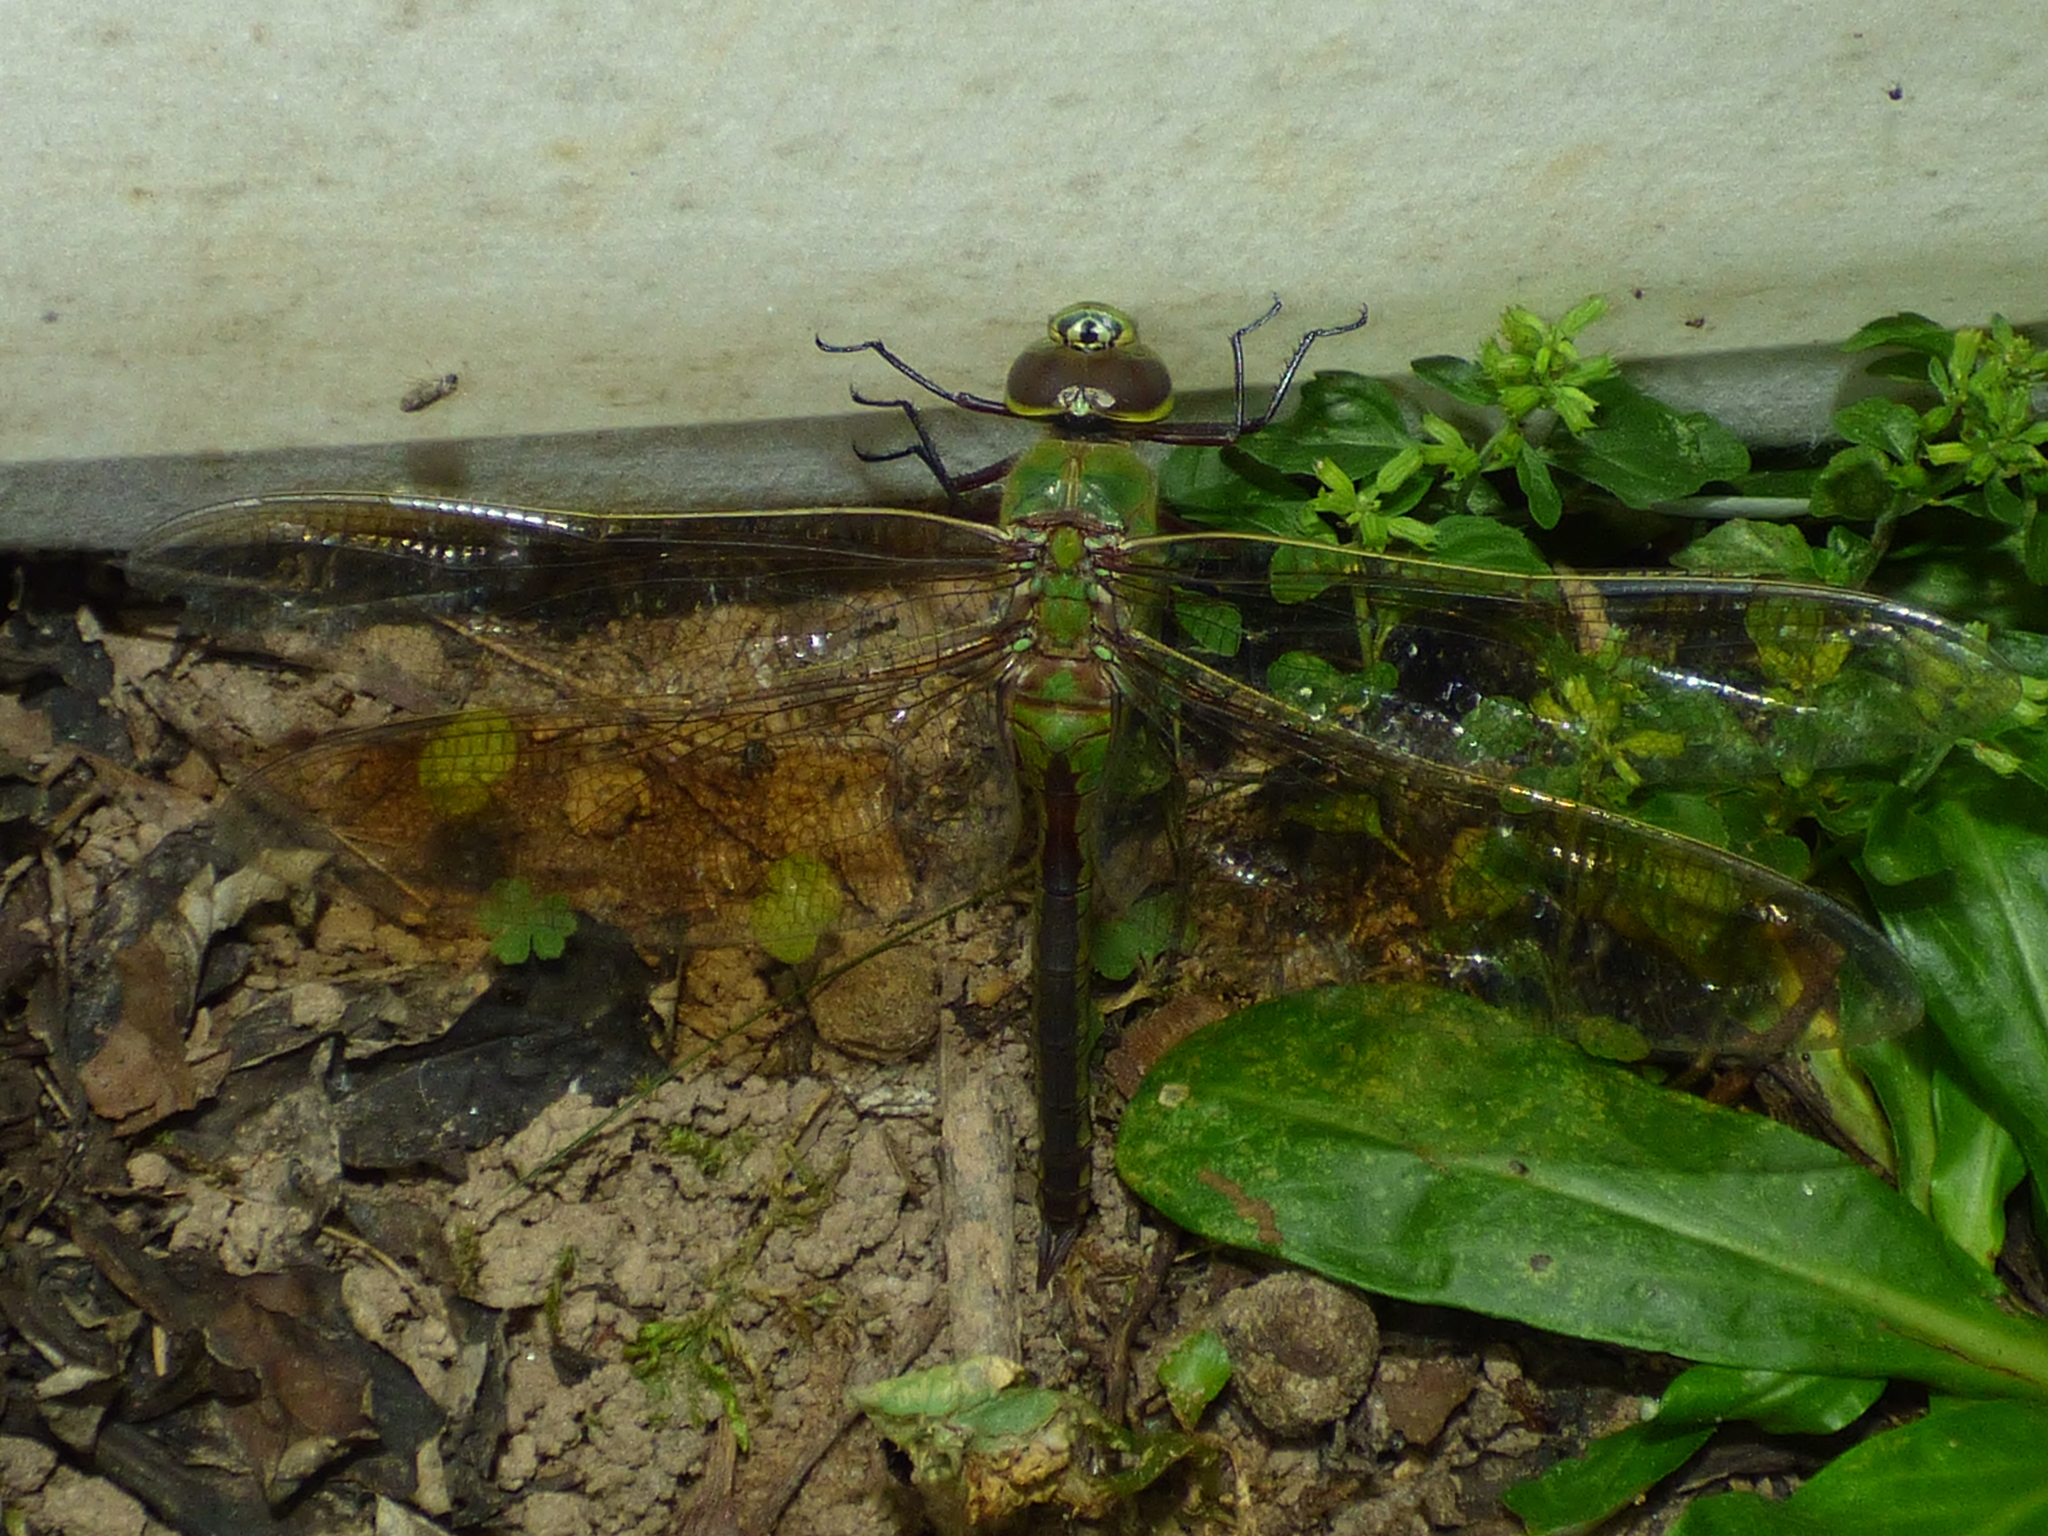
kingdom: Animalia
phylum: Arthropoda
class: Insecta
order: Odonata
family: Aeshnidae
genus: Anax
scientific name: Anax junius
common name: Common green darner
